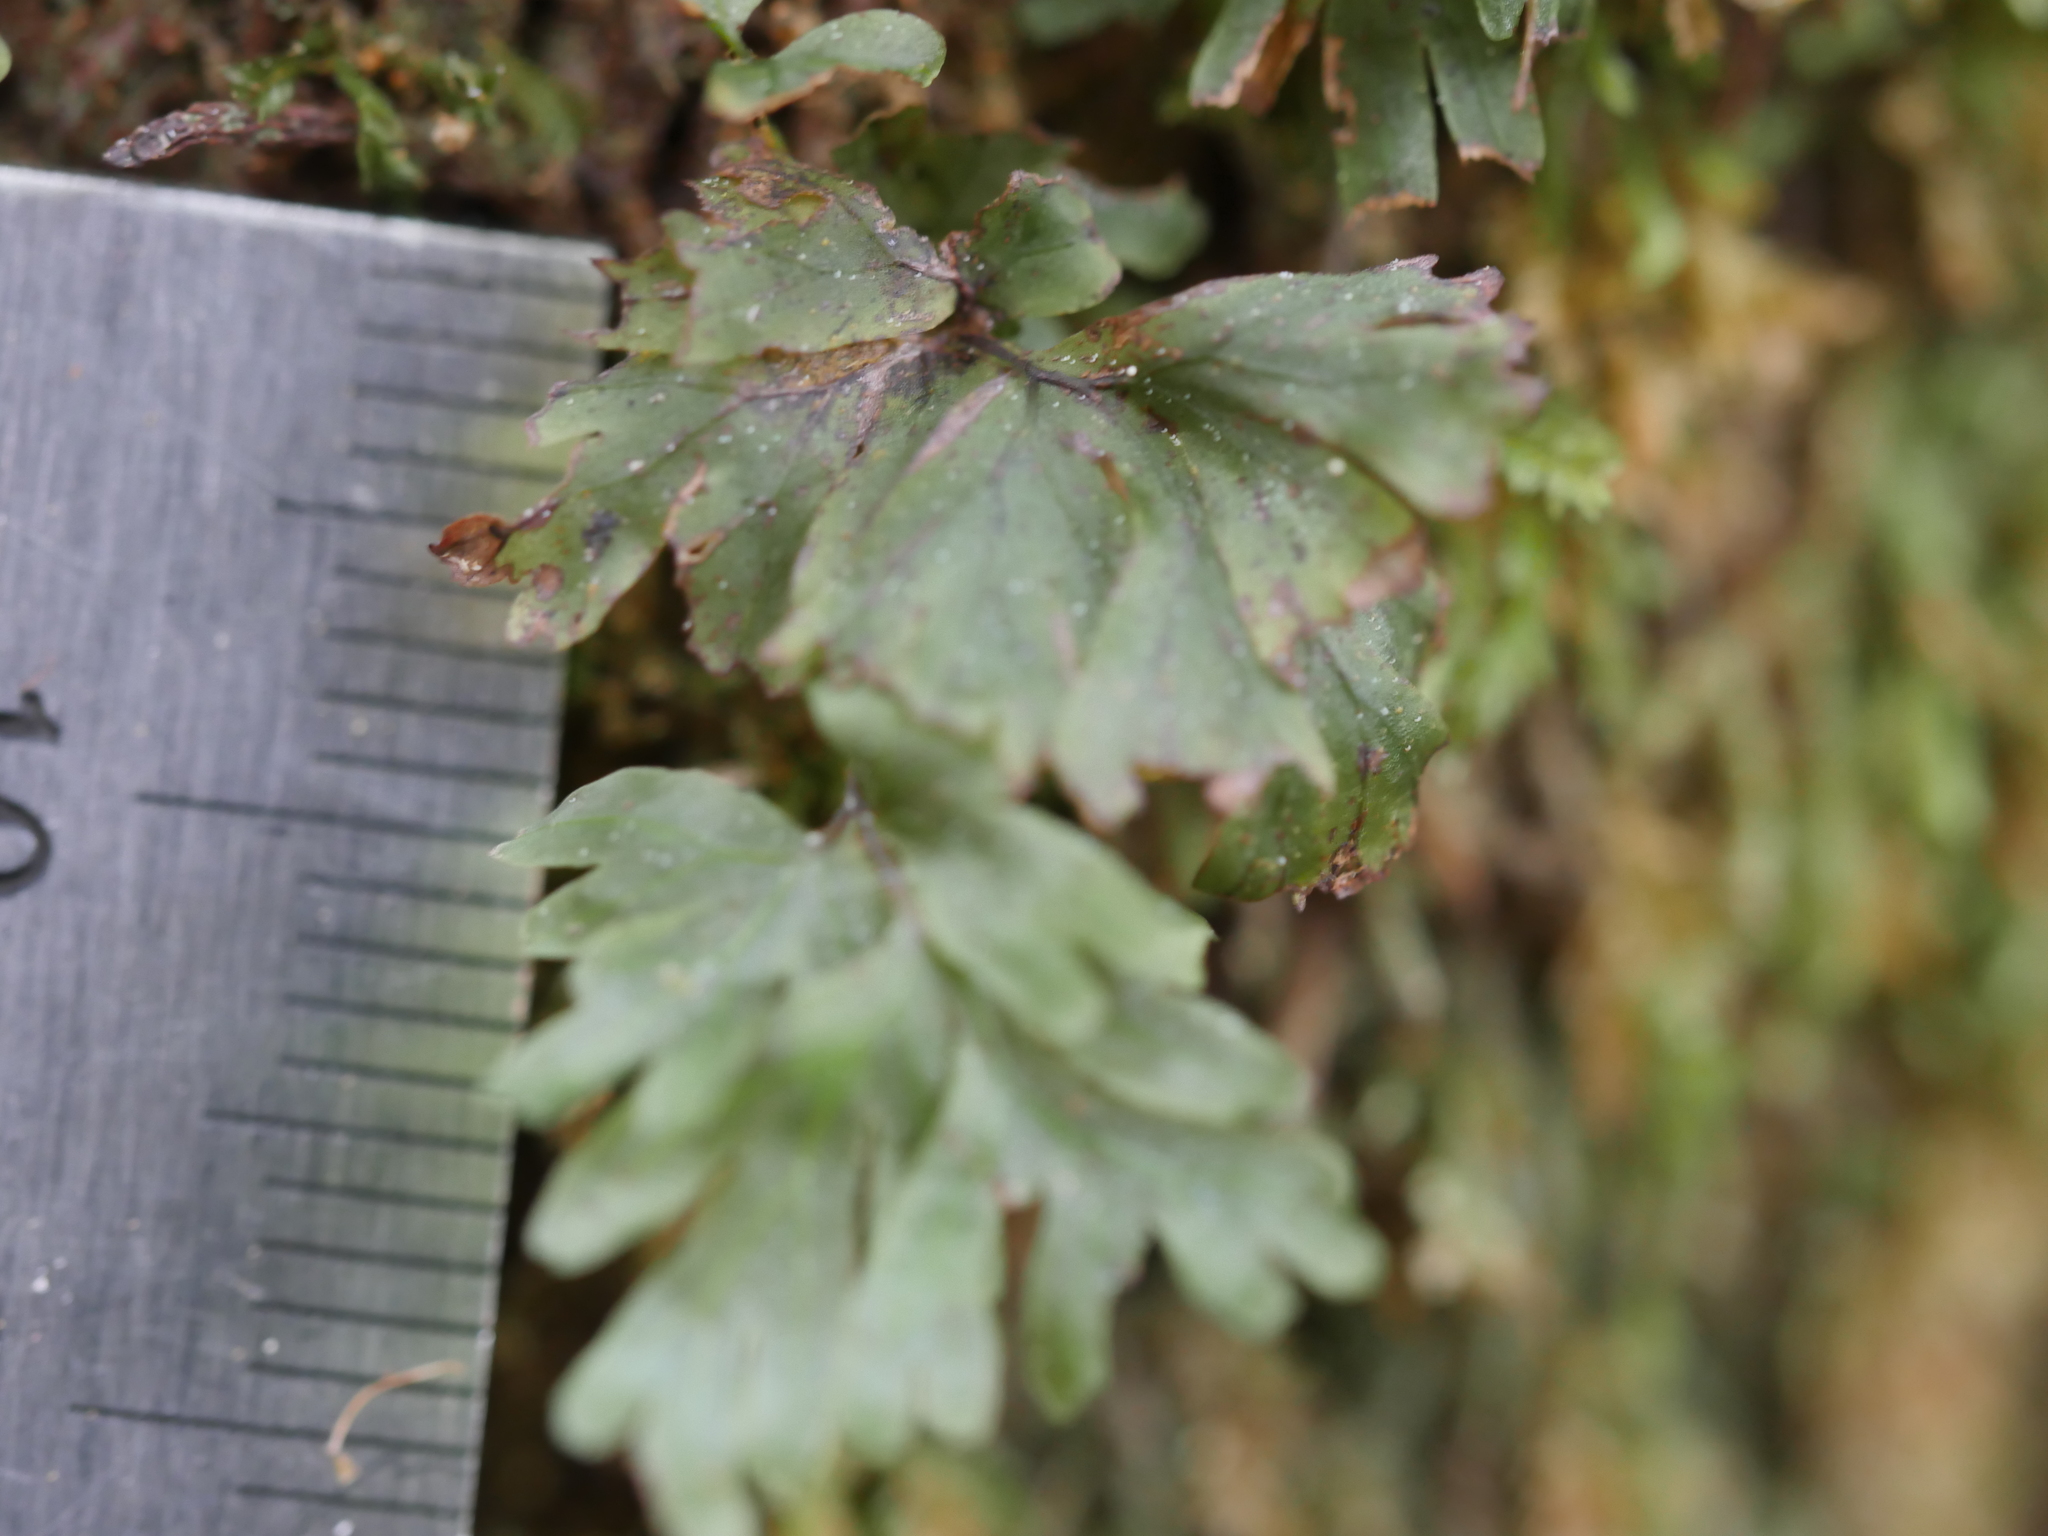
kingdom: Plantae
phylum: Marchantiophyta
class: Jungermanniopsida
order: Pallaviciniales
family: Pallaviciniaceae
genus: Symphyogyna
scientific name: Symphyogyna hymenophyllum
